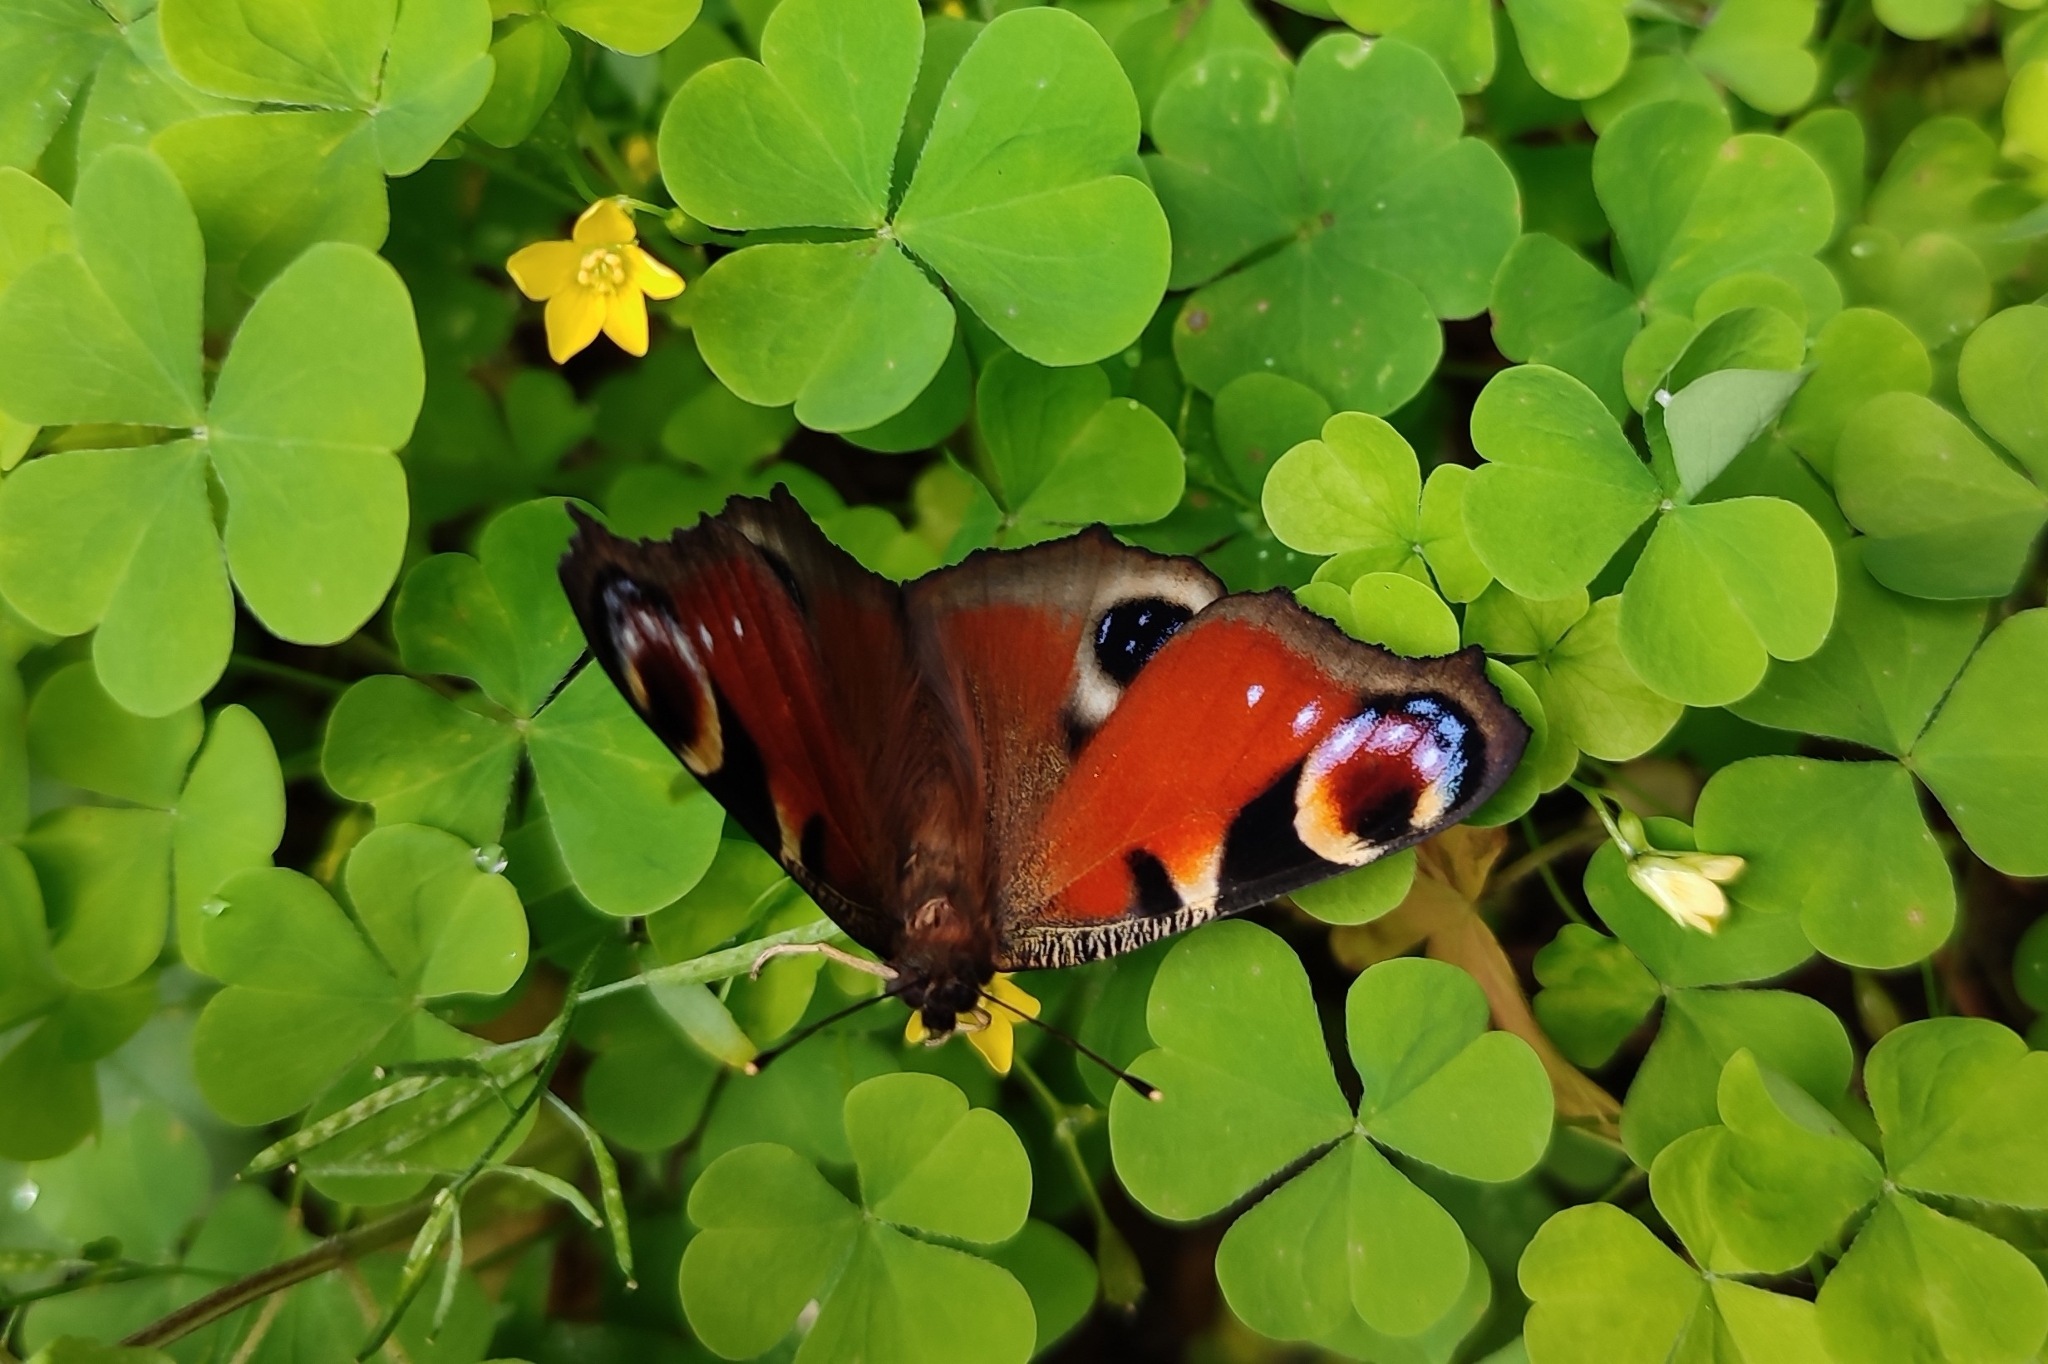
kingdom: Animalia
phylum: Arthropoda
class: Insecta
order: Lepidoptera
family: Nymphalidae
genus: Aglais
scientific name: Aglais io
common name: Peacock
